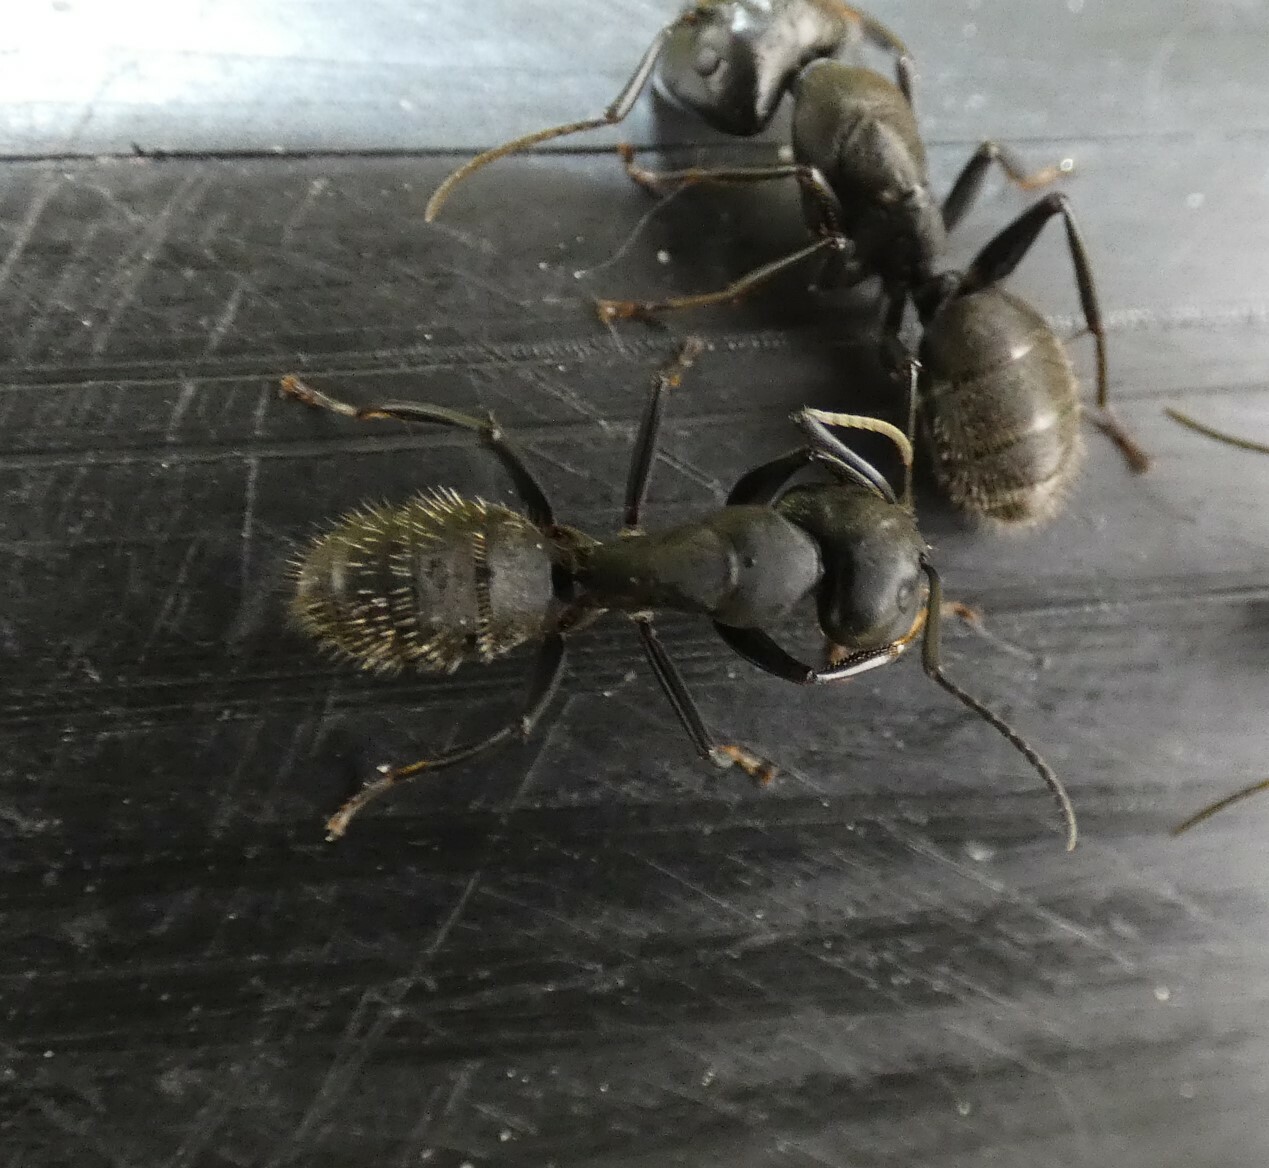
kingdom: Animalia
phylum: Arthropoda
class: Insecta
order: Hymenoptera
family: Formicidae
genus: Camponotus
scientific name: Camponotus vagus
